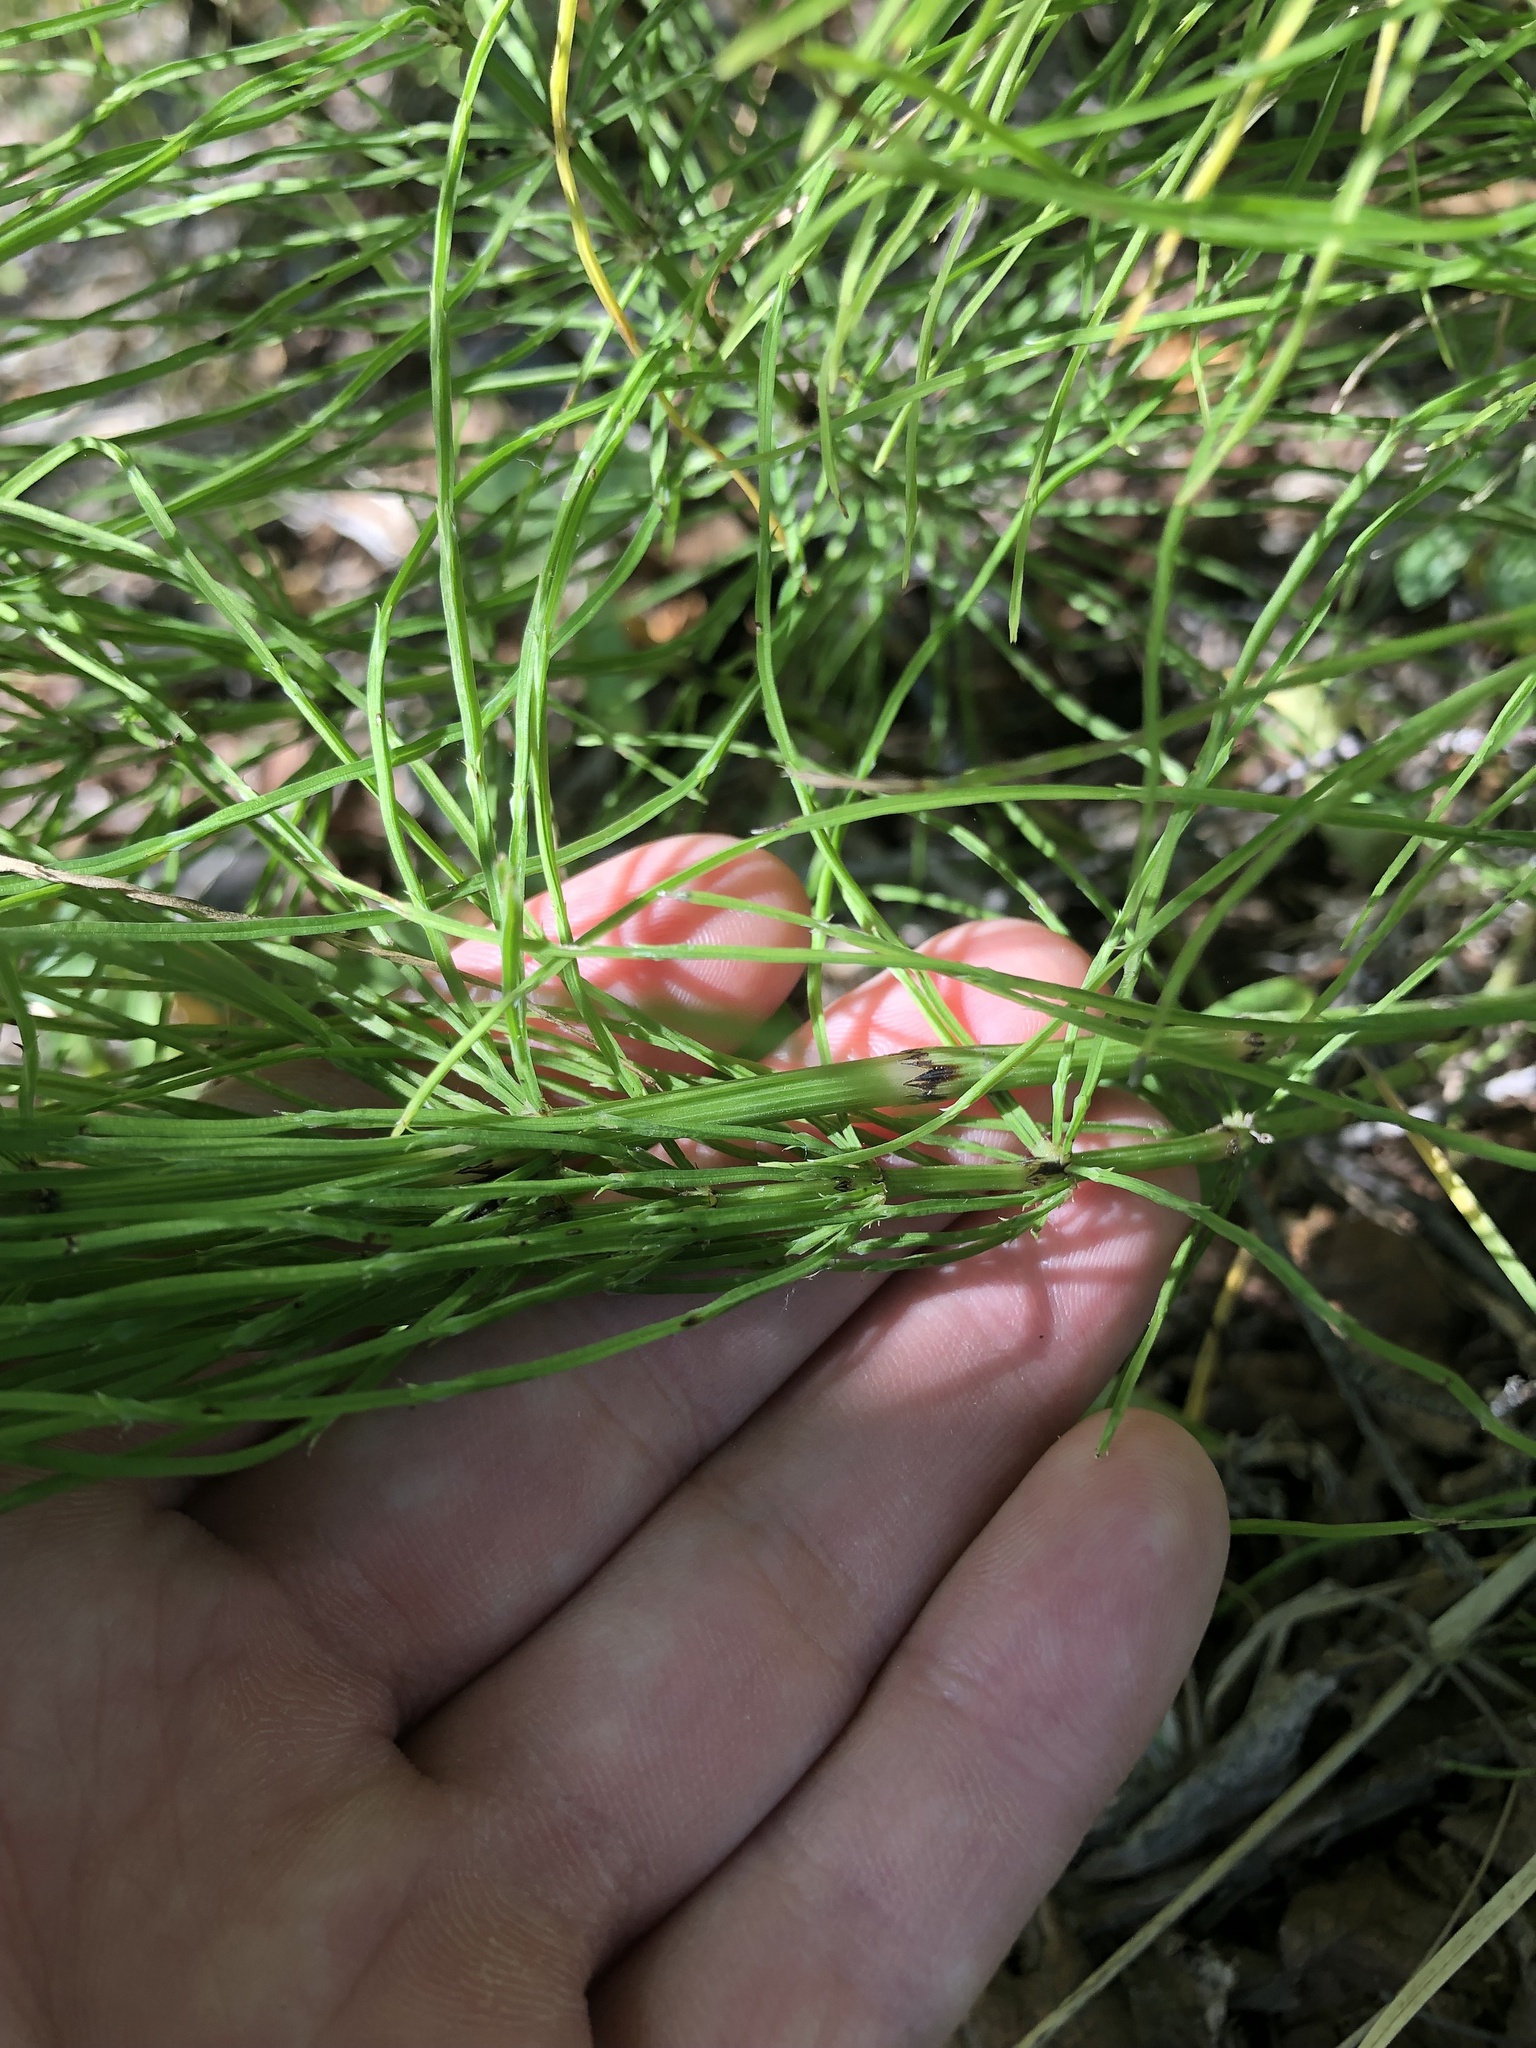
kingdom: Plantae
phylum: Tracheophyta
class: Polypodiopsida
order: Equisetales
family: Equisetaceae
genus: Equisetum
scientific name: Equisetum arvense
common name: Field horsetail
